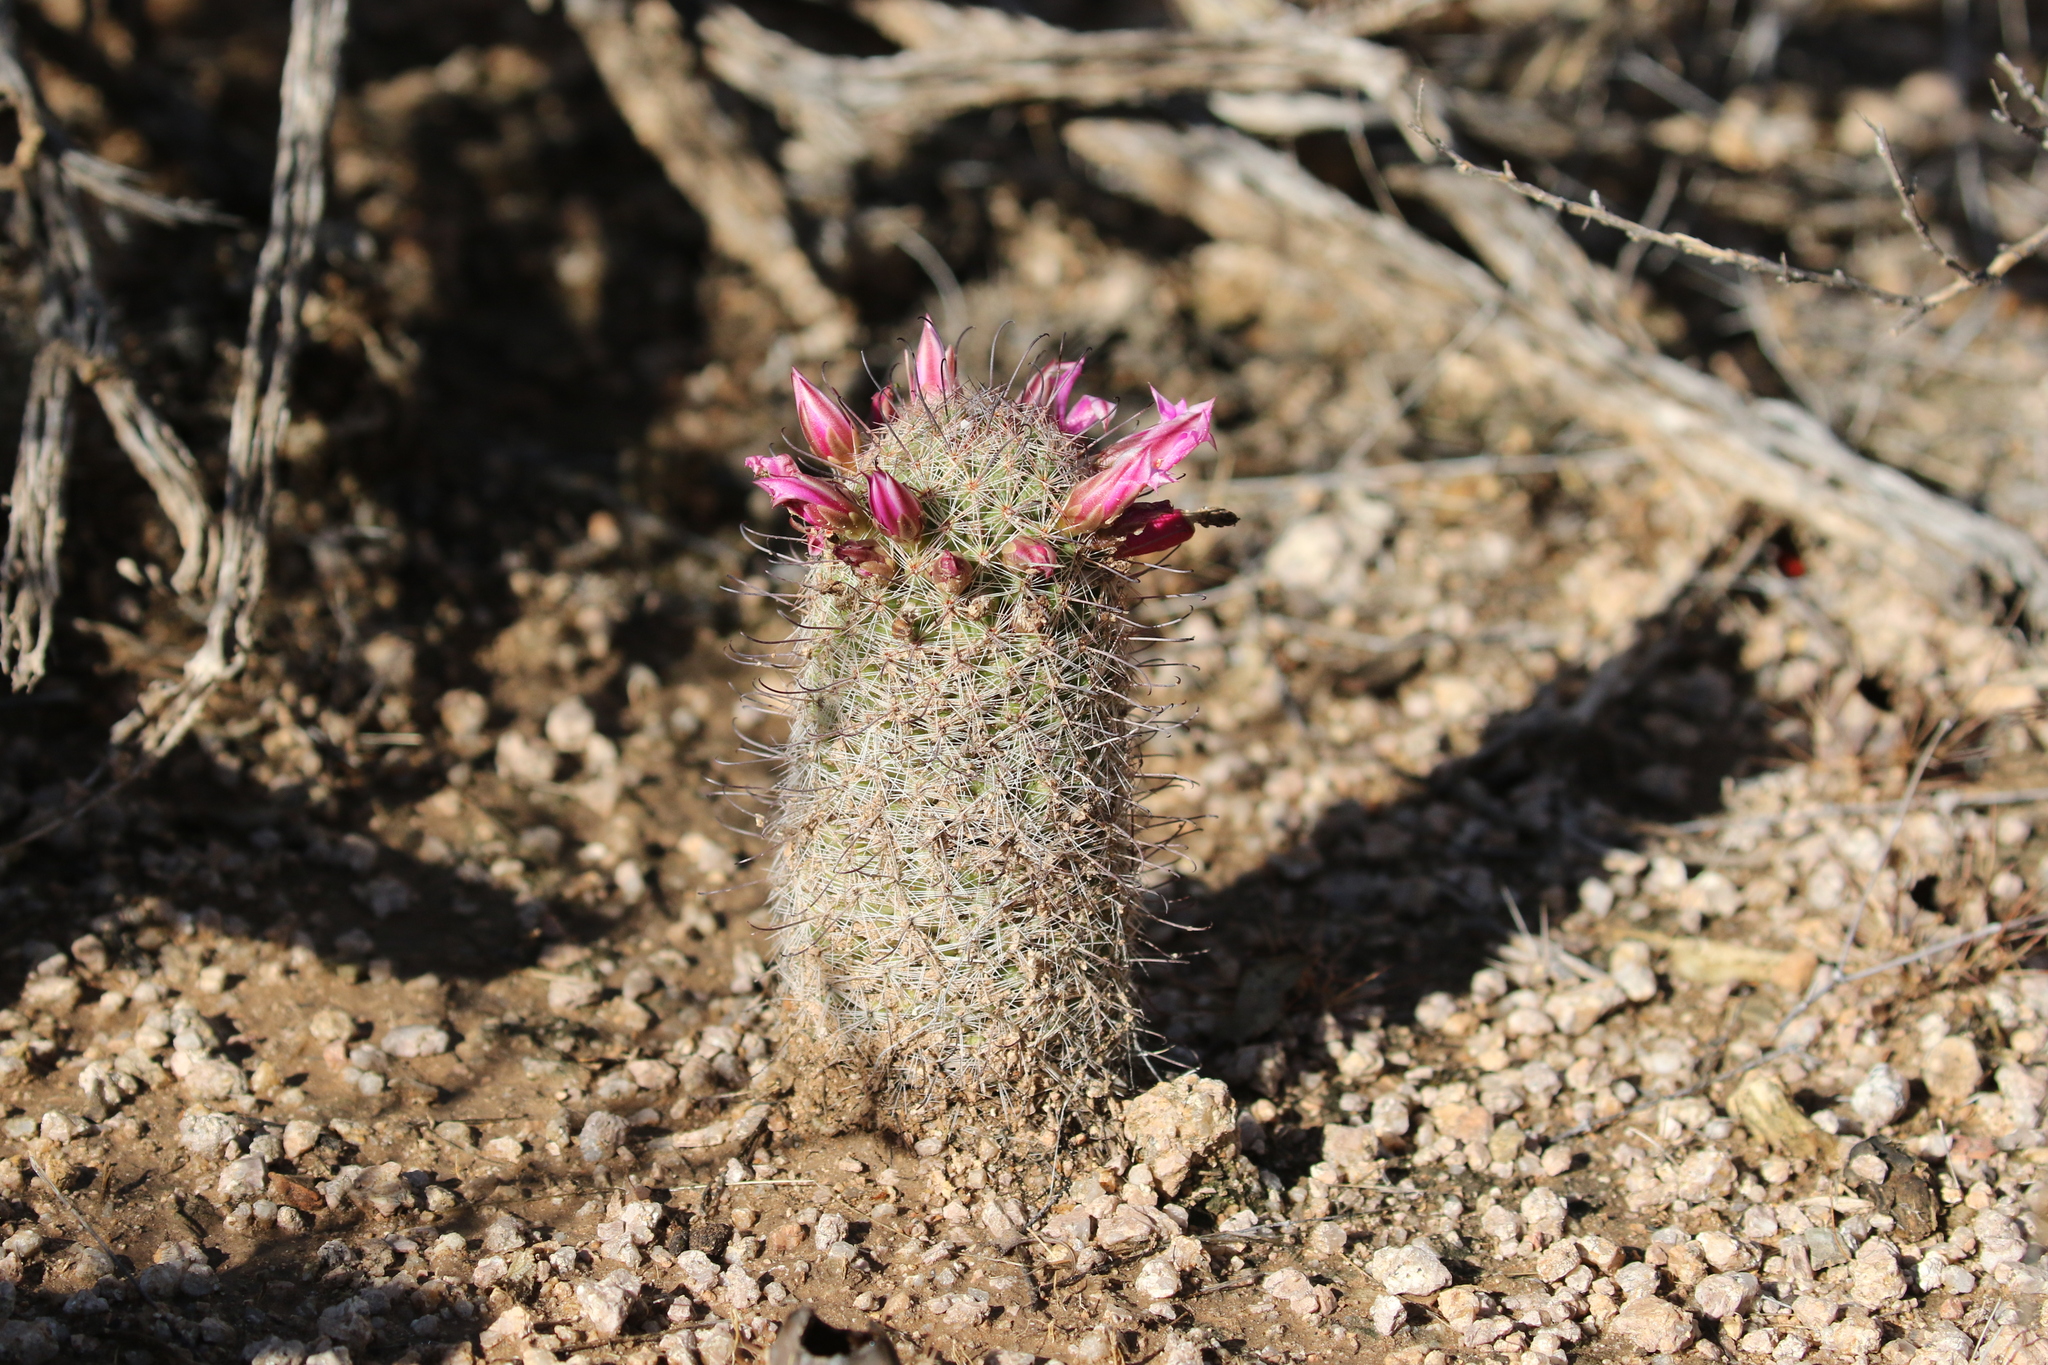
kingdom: Plantae
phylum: Tracheophyta
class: Magnoliopsida
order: Caryophyllales
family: Cactaceae
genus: Cochemiea
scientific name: Cochemiea grahamii
